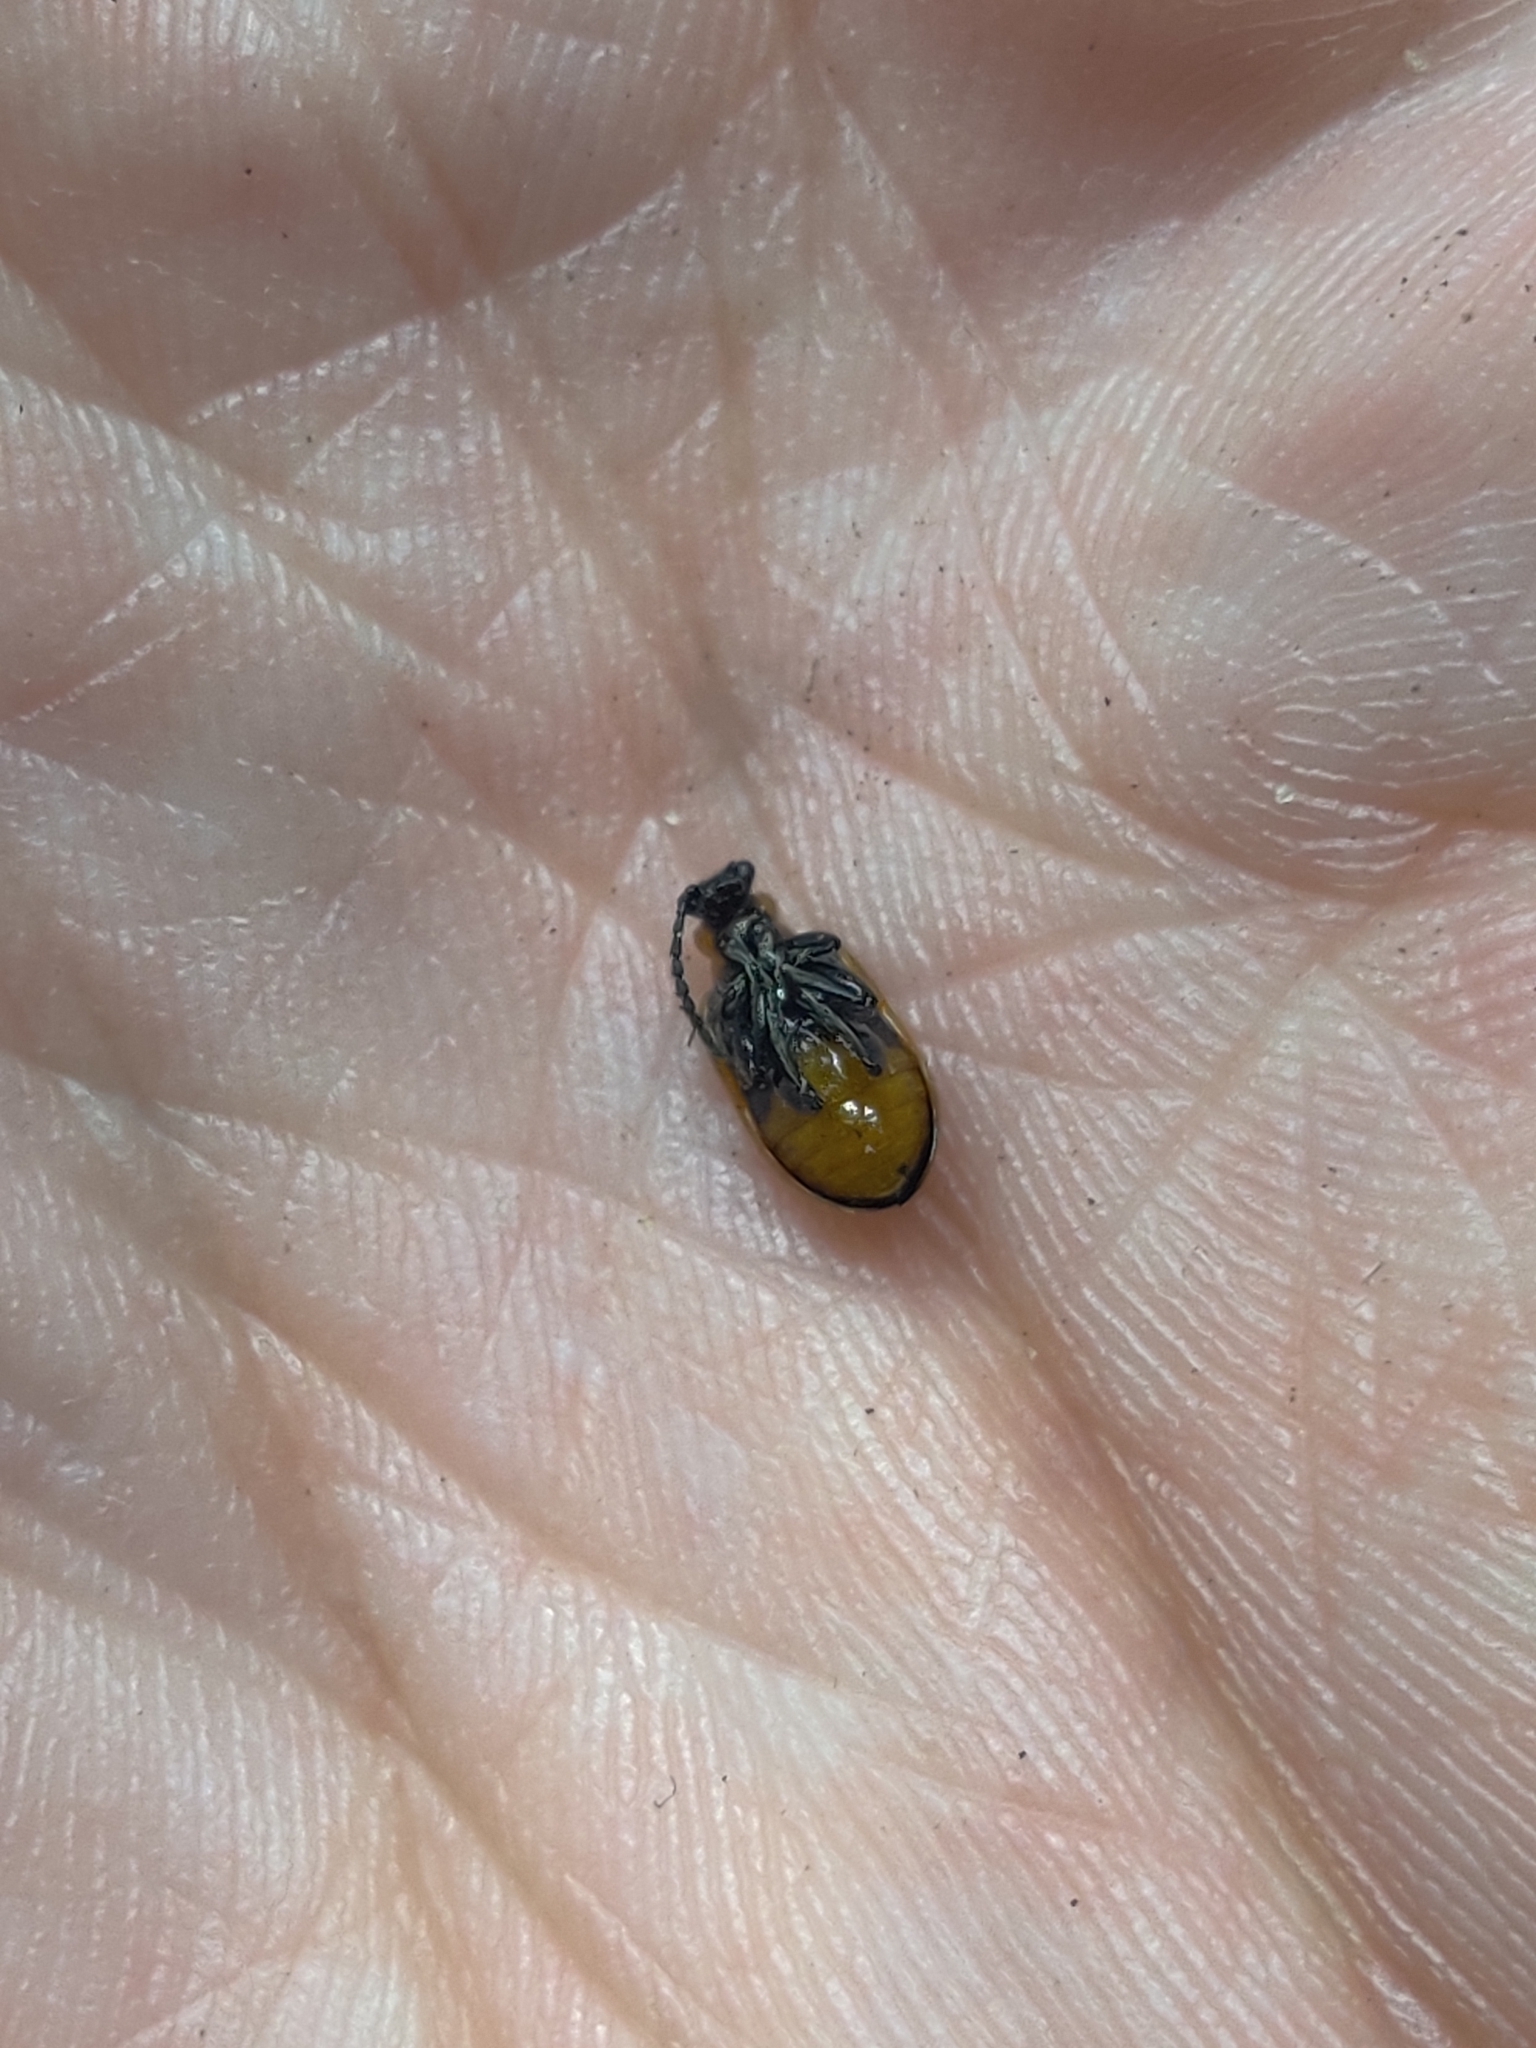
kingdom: Animalia
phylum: Arthropoda
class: Insecta
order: Coleoptera
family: Chrysomelidae
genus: Lema
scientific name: Lema solani
